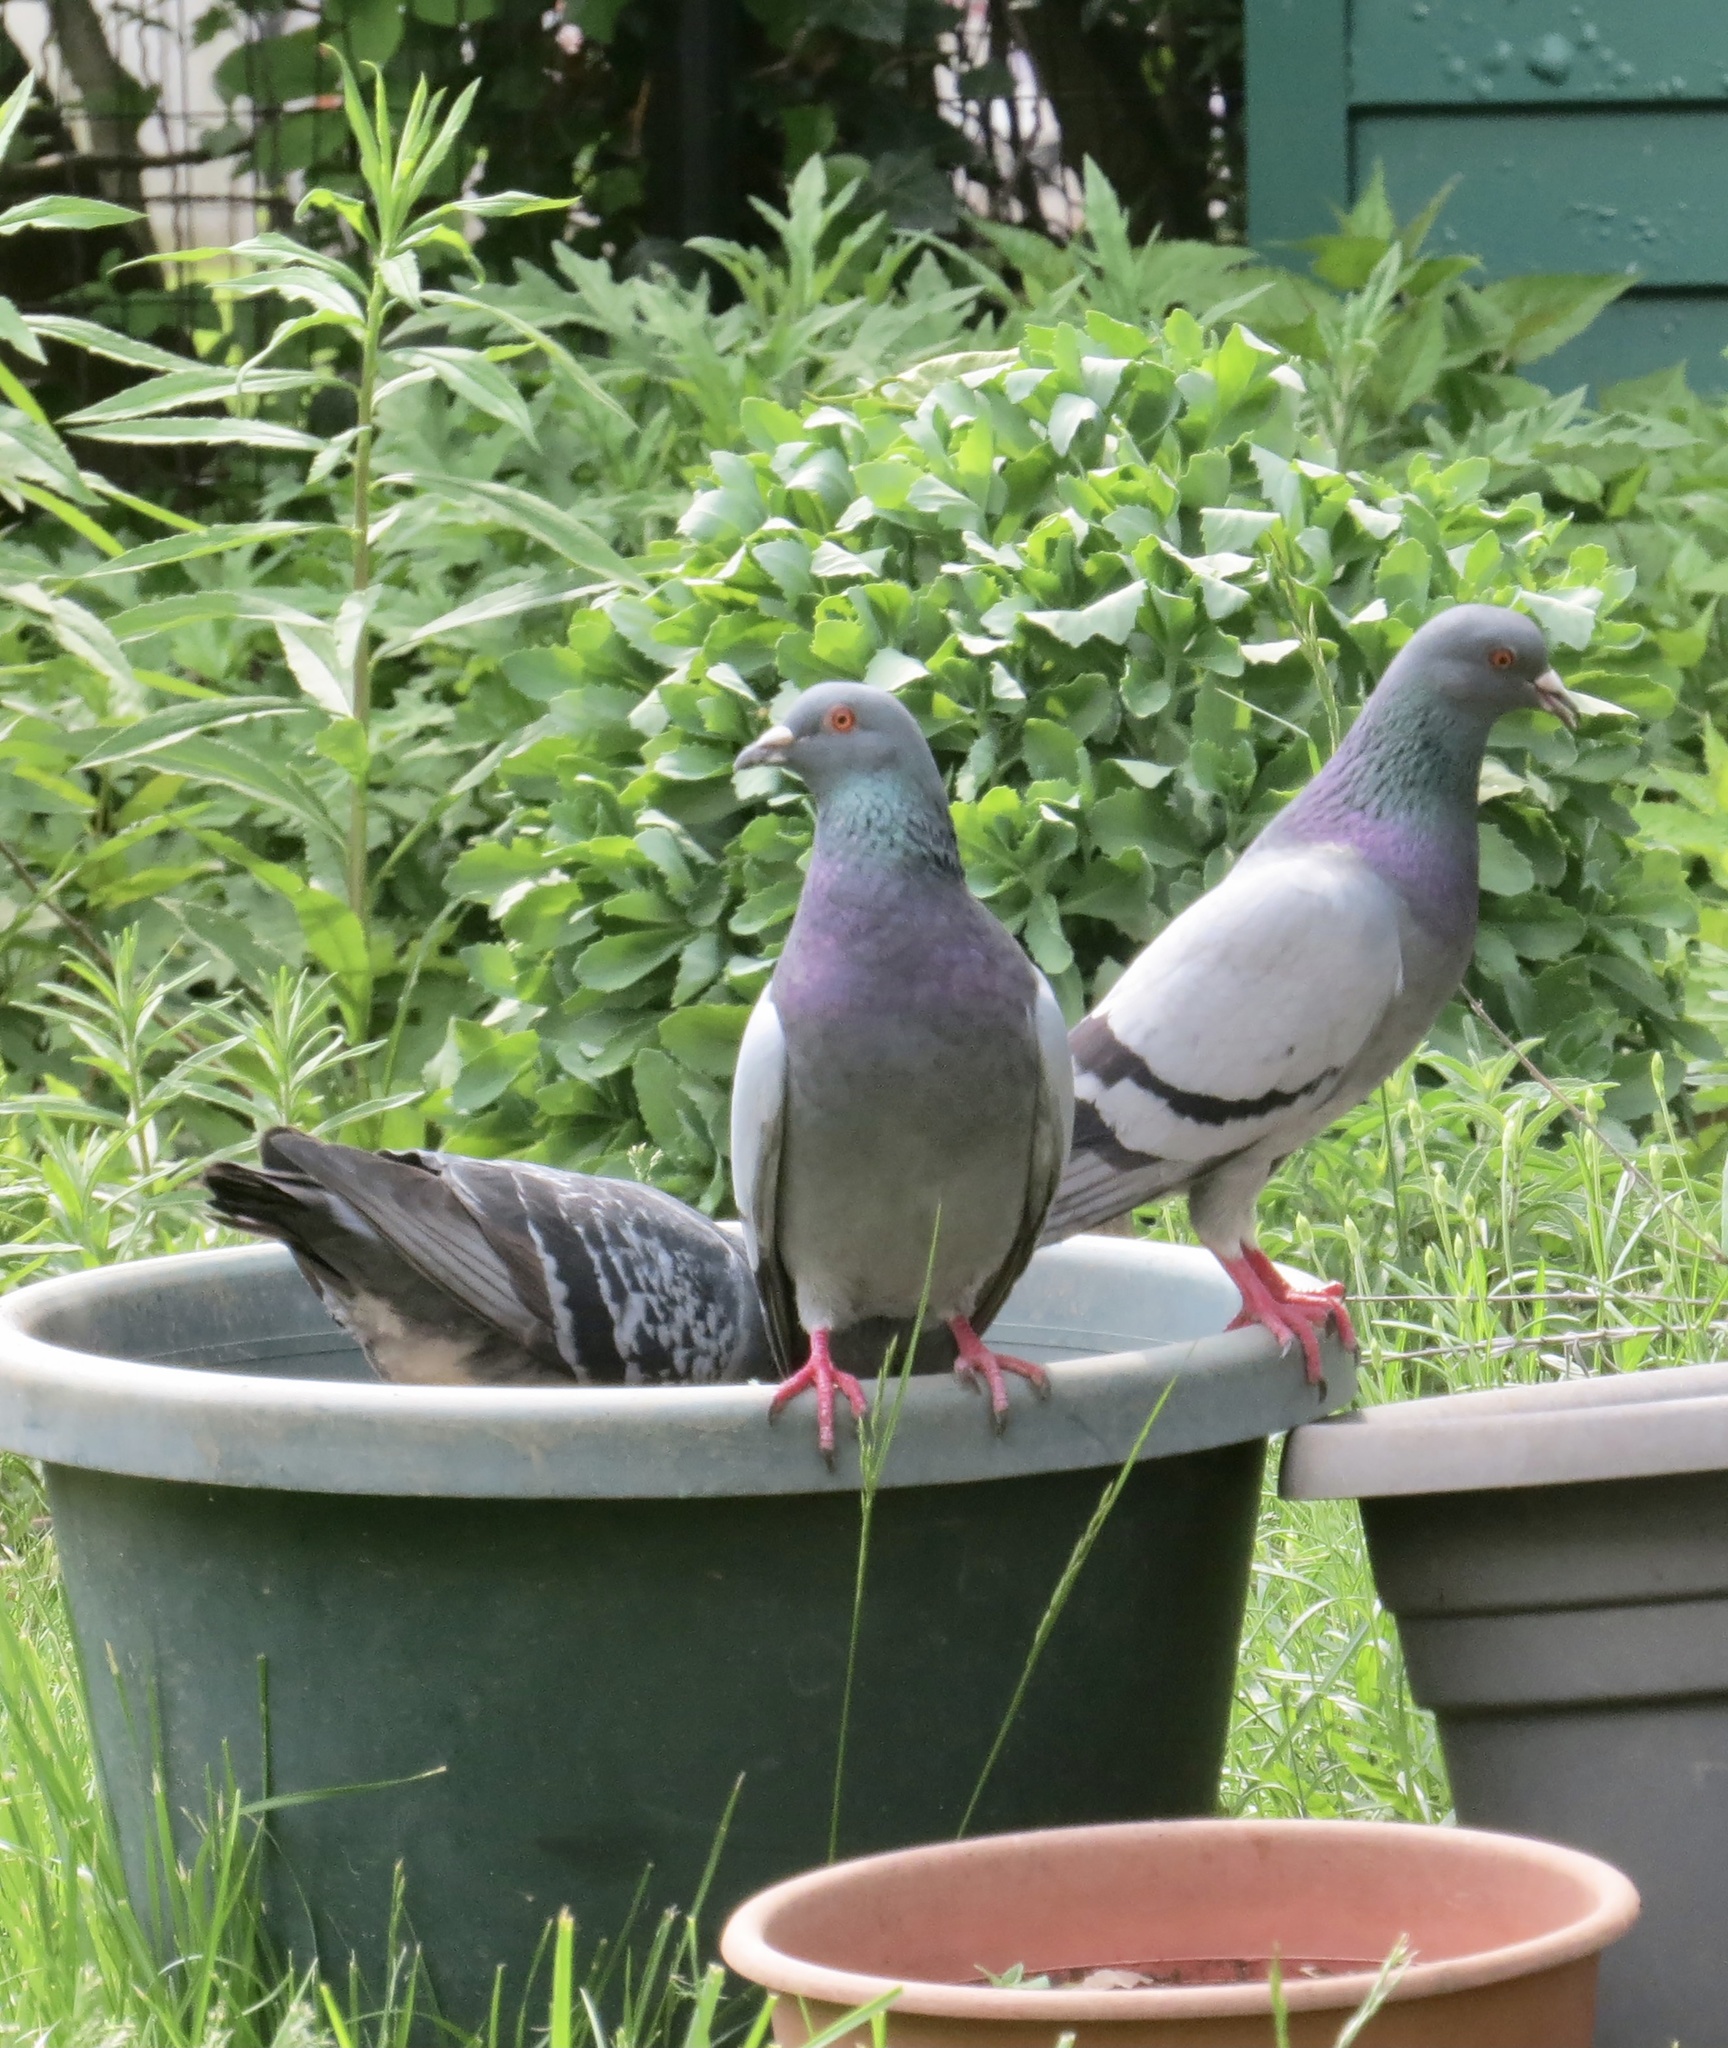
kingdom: Animalia
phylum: Chordata
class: Aves
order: Columbiformes
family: Columbidae
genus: Columba
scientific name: Columba livia
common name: Rock pigeon
